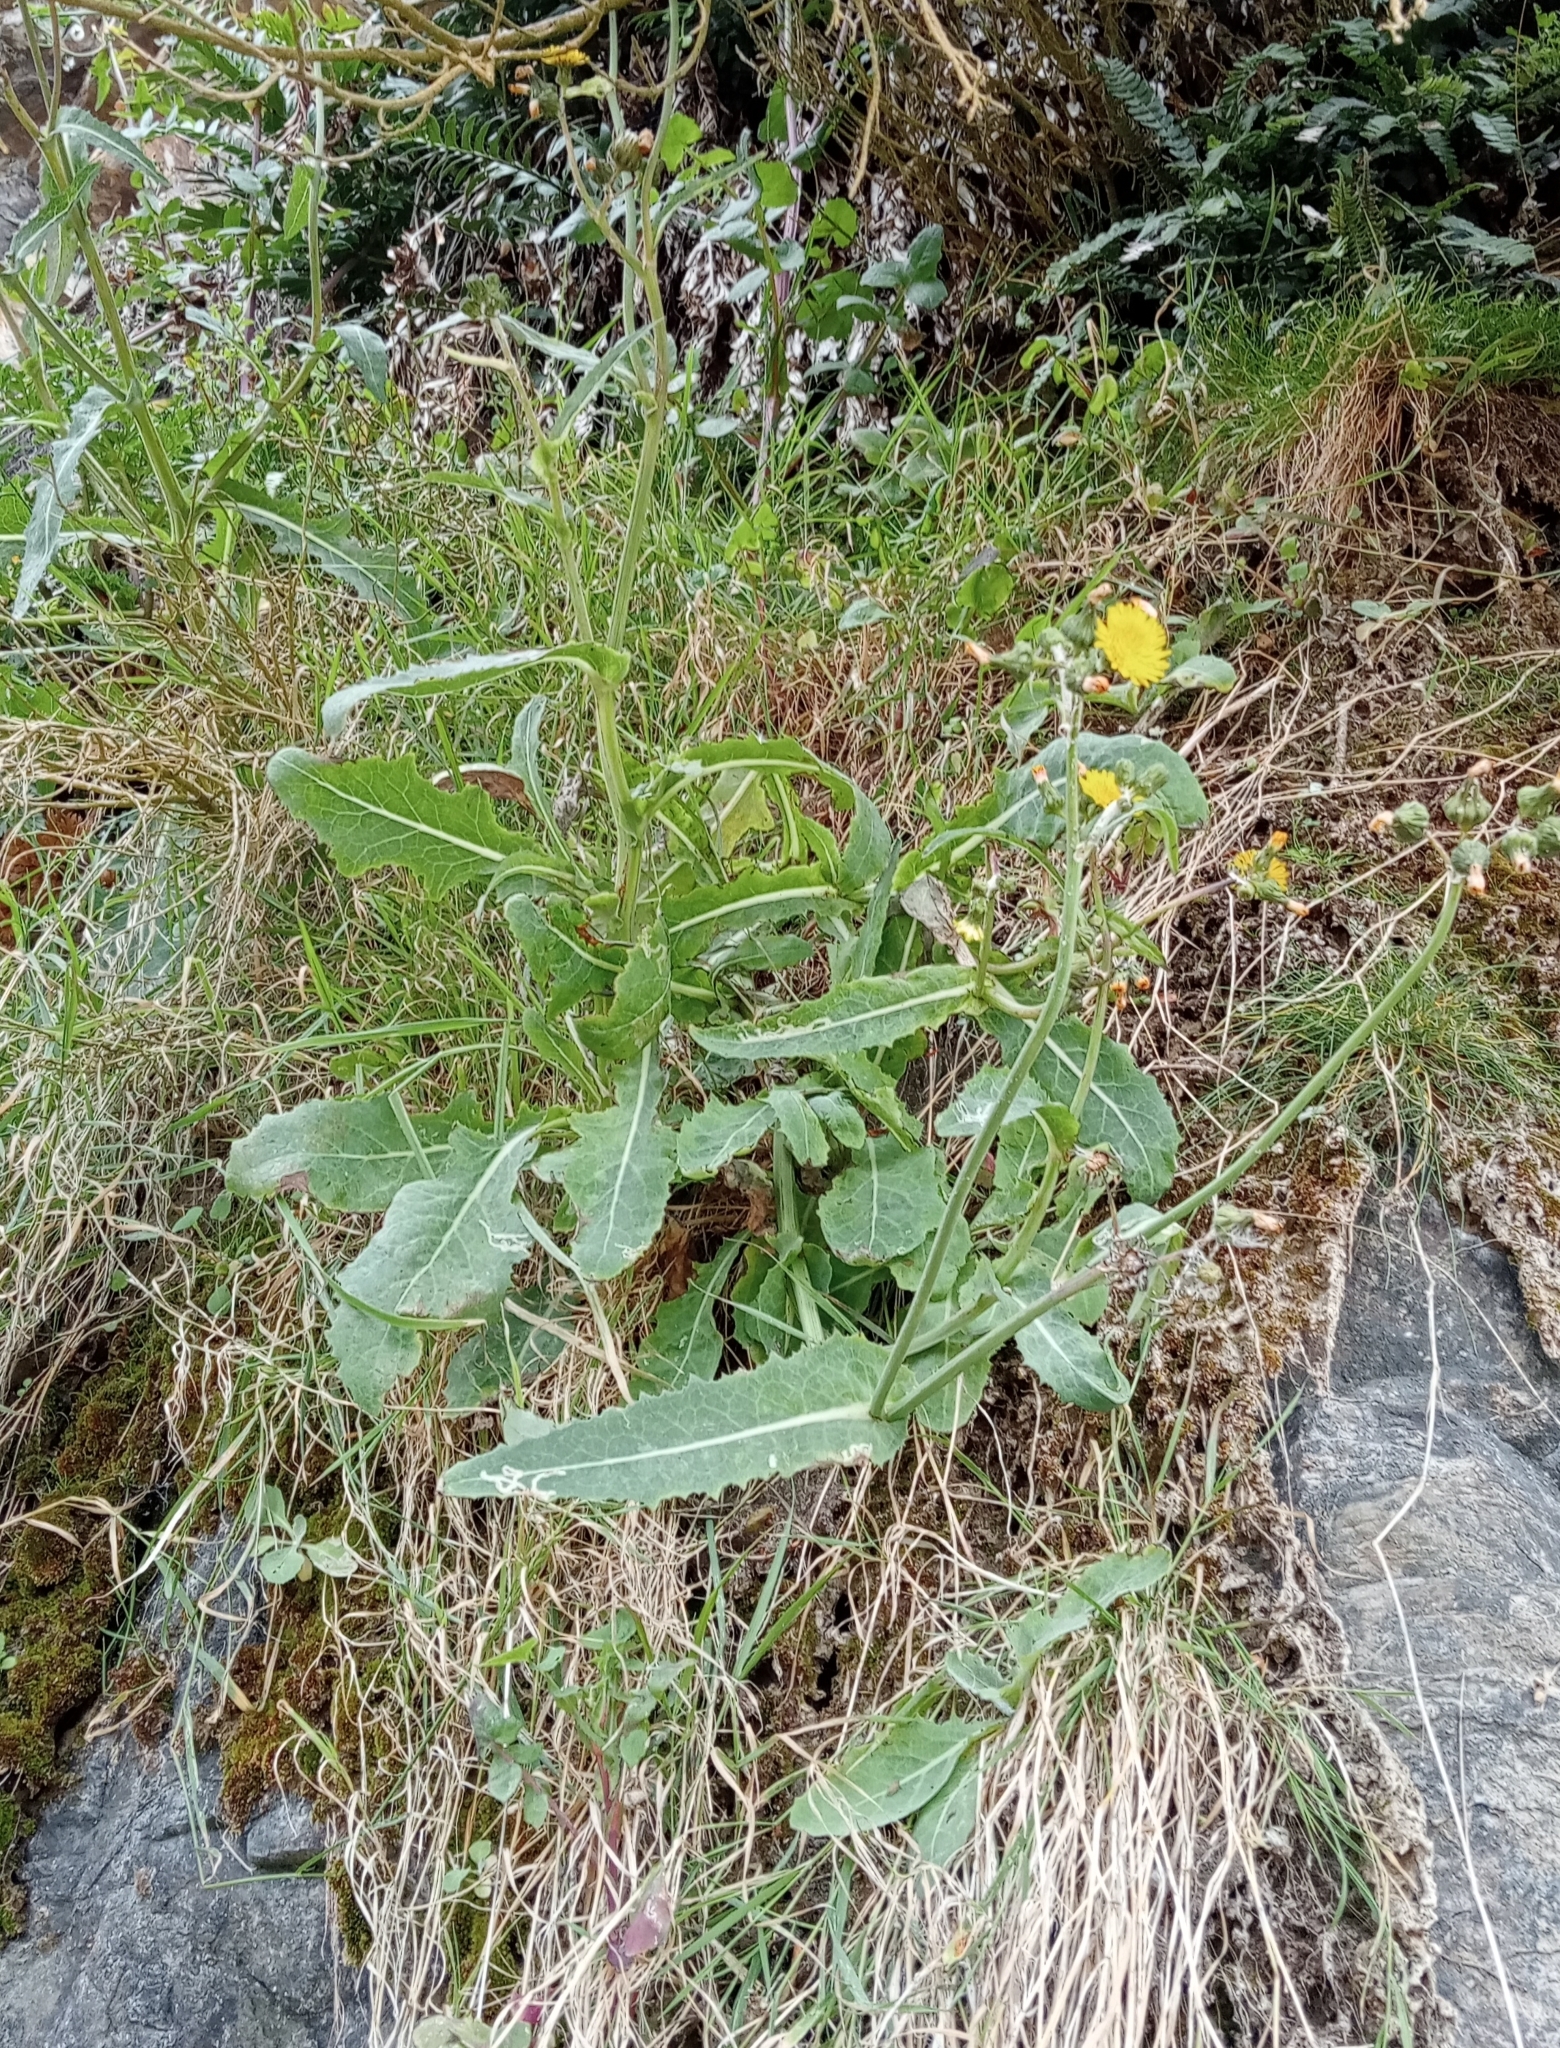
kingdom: Plantae
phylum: Tracheophyta
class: Magnoliopsida
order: Asterales
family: Asteraceae
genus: Sonchus
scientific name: Sonchus kirkii
